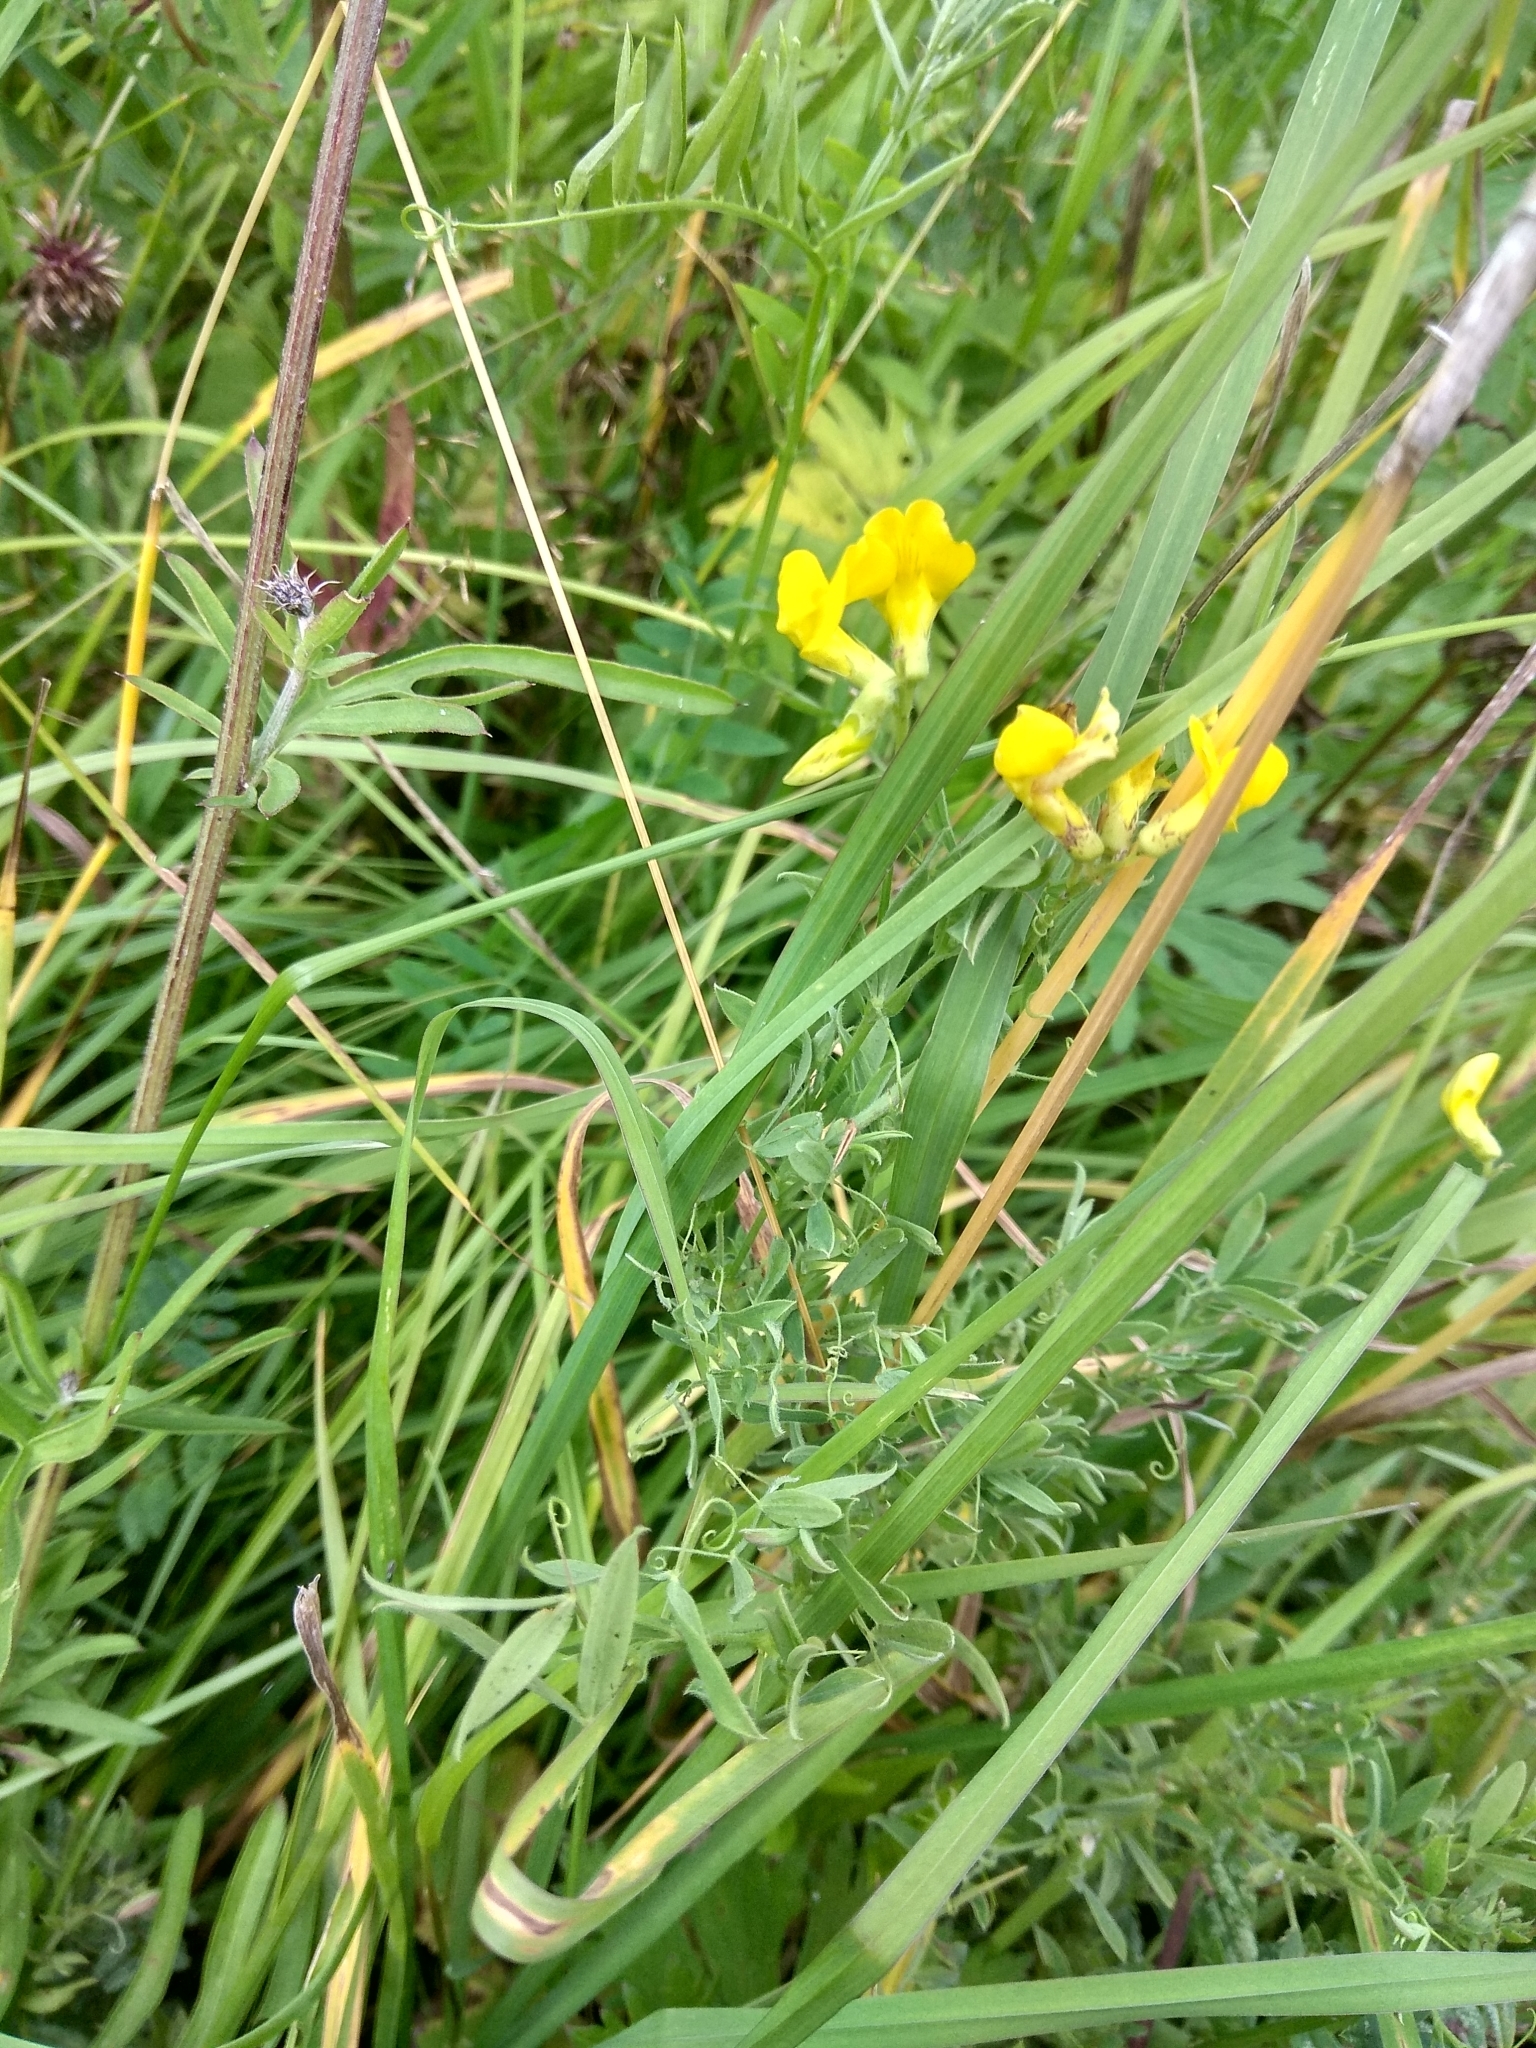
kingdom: Plantae
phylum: Tracheophyta
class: Magnoliopsida
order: Fabales
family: Fabaceae
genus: Lathyrus
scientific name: Lathyrus pratensis
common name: Meadow vetchling
